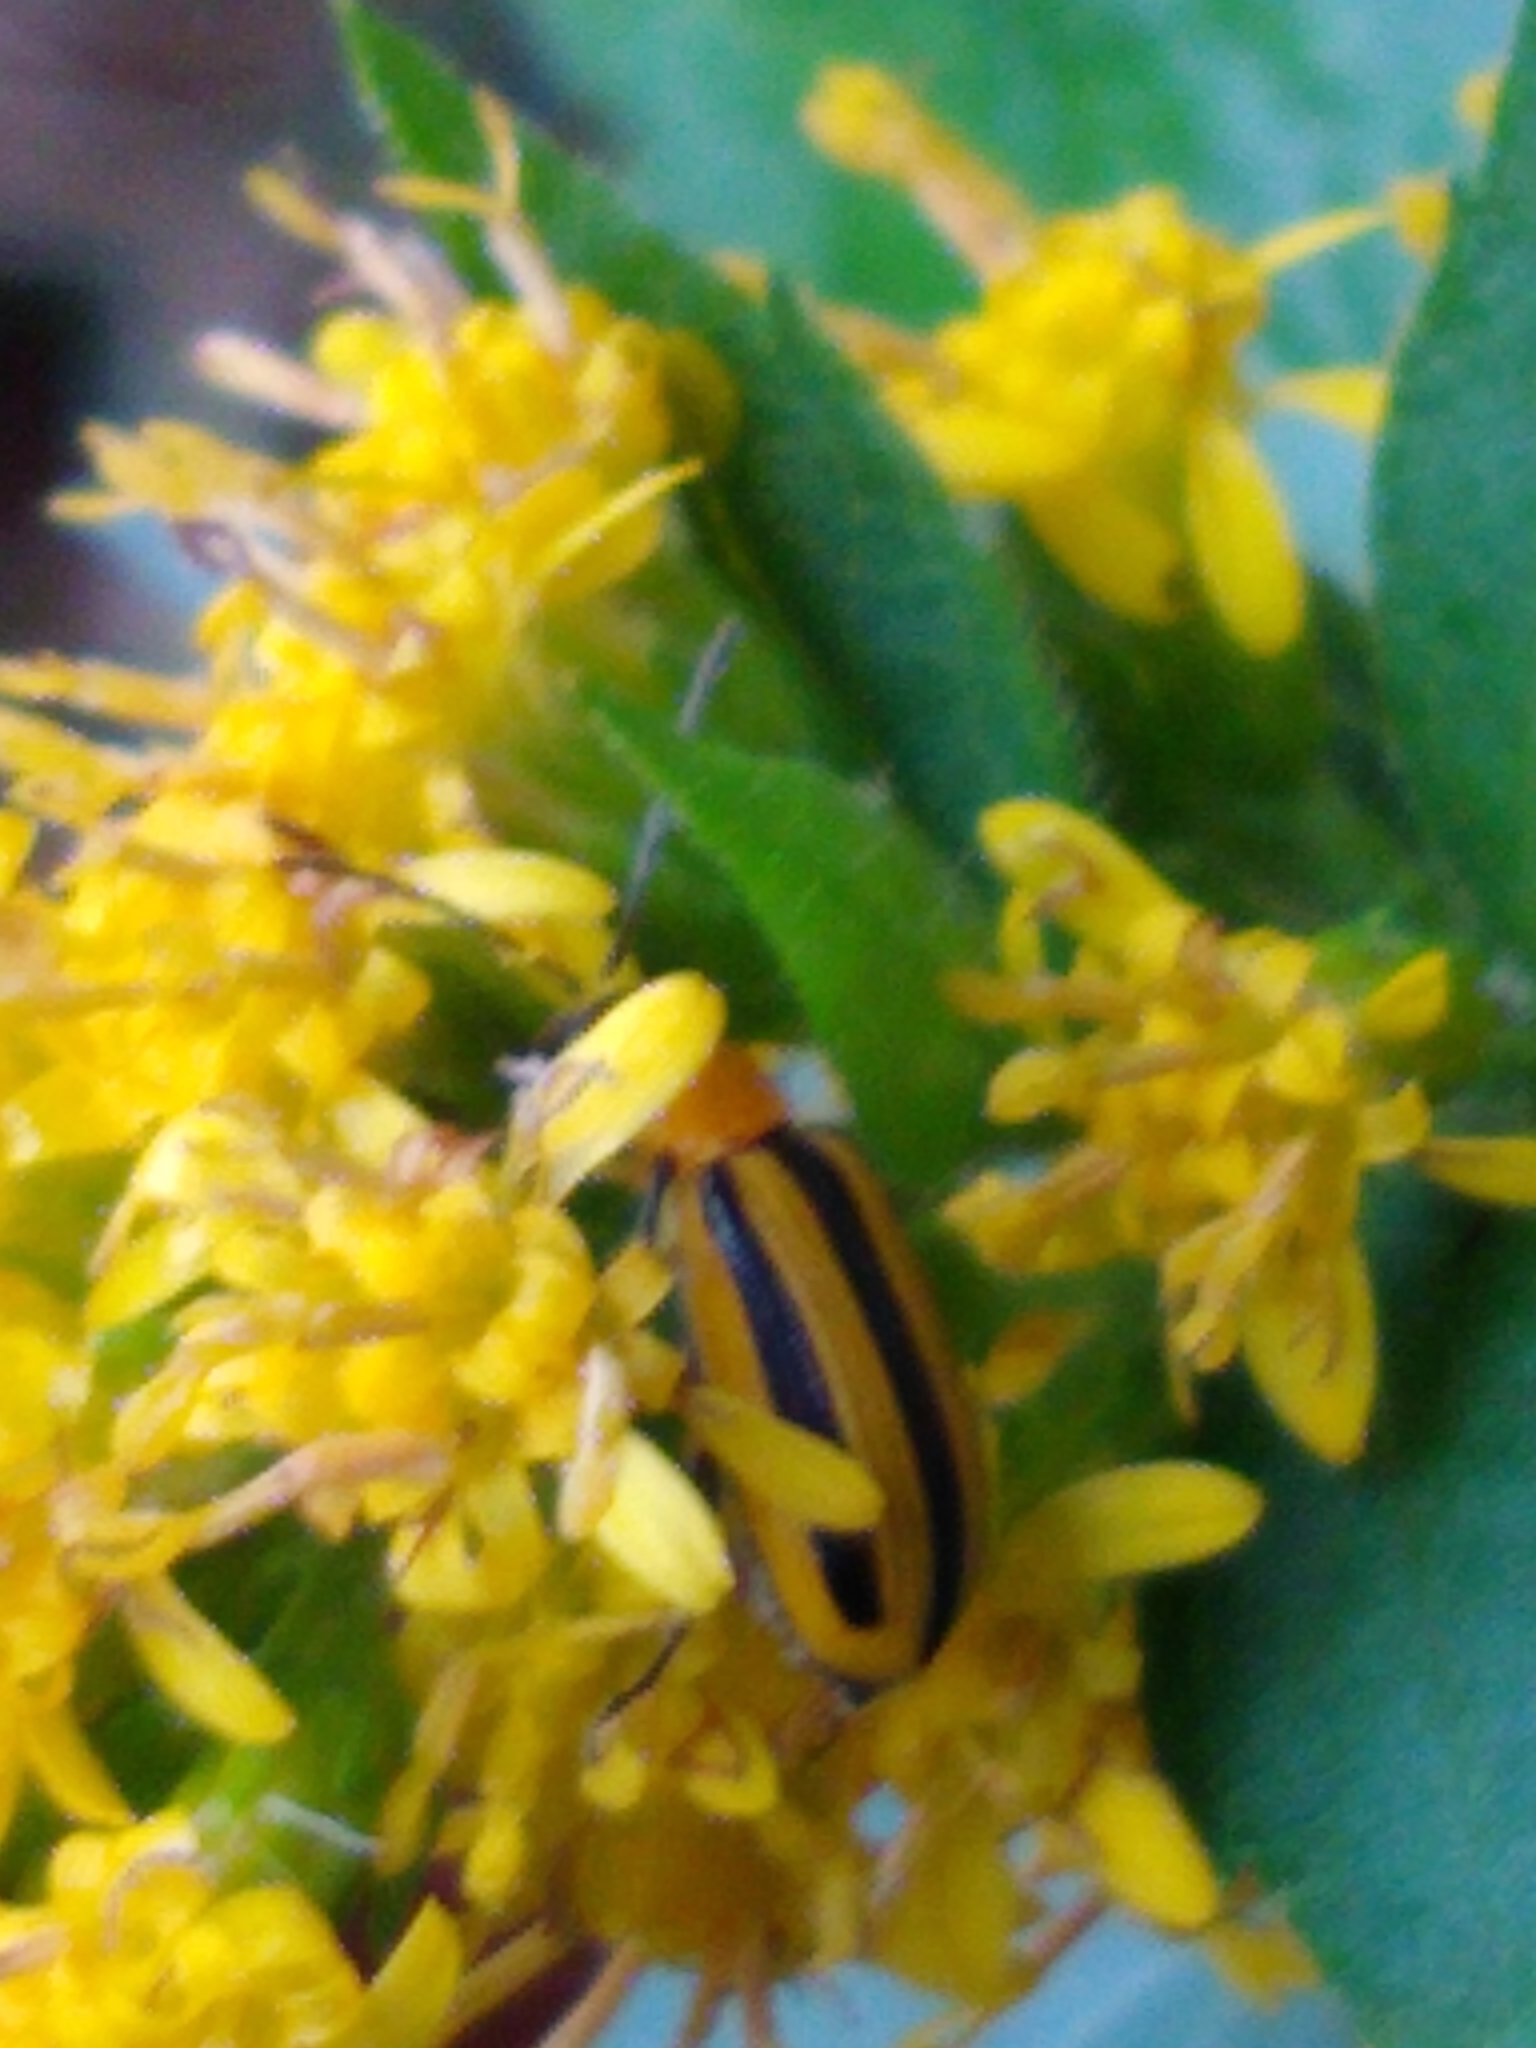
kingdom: Animalia
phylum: Arthropoda
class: Insecta
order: Coleoptera
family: Chrysomelidae
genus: Acalymma
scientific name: Acalymma vittatum
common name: Striped cucumber beetle
